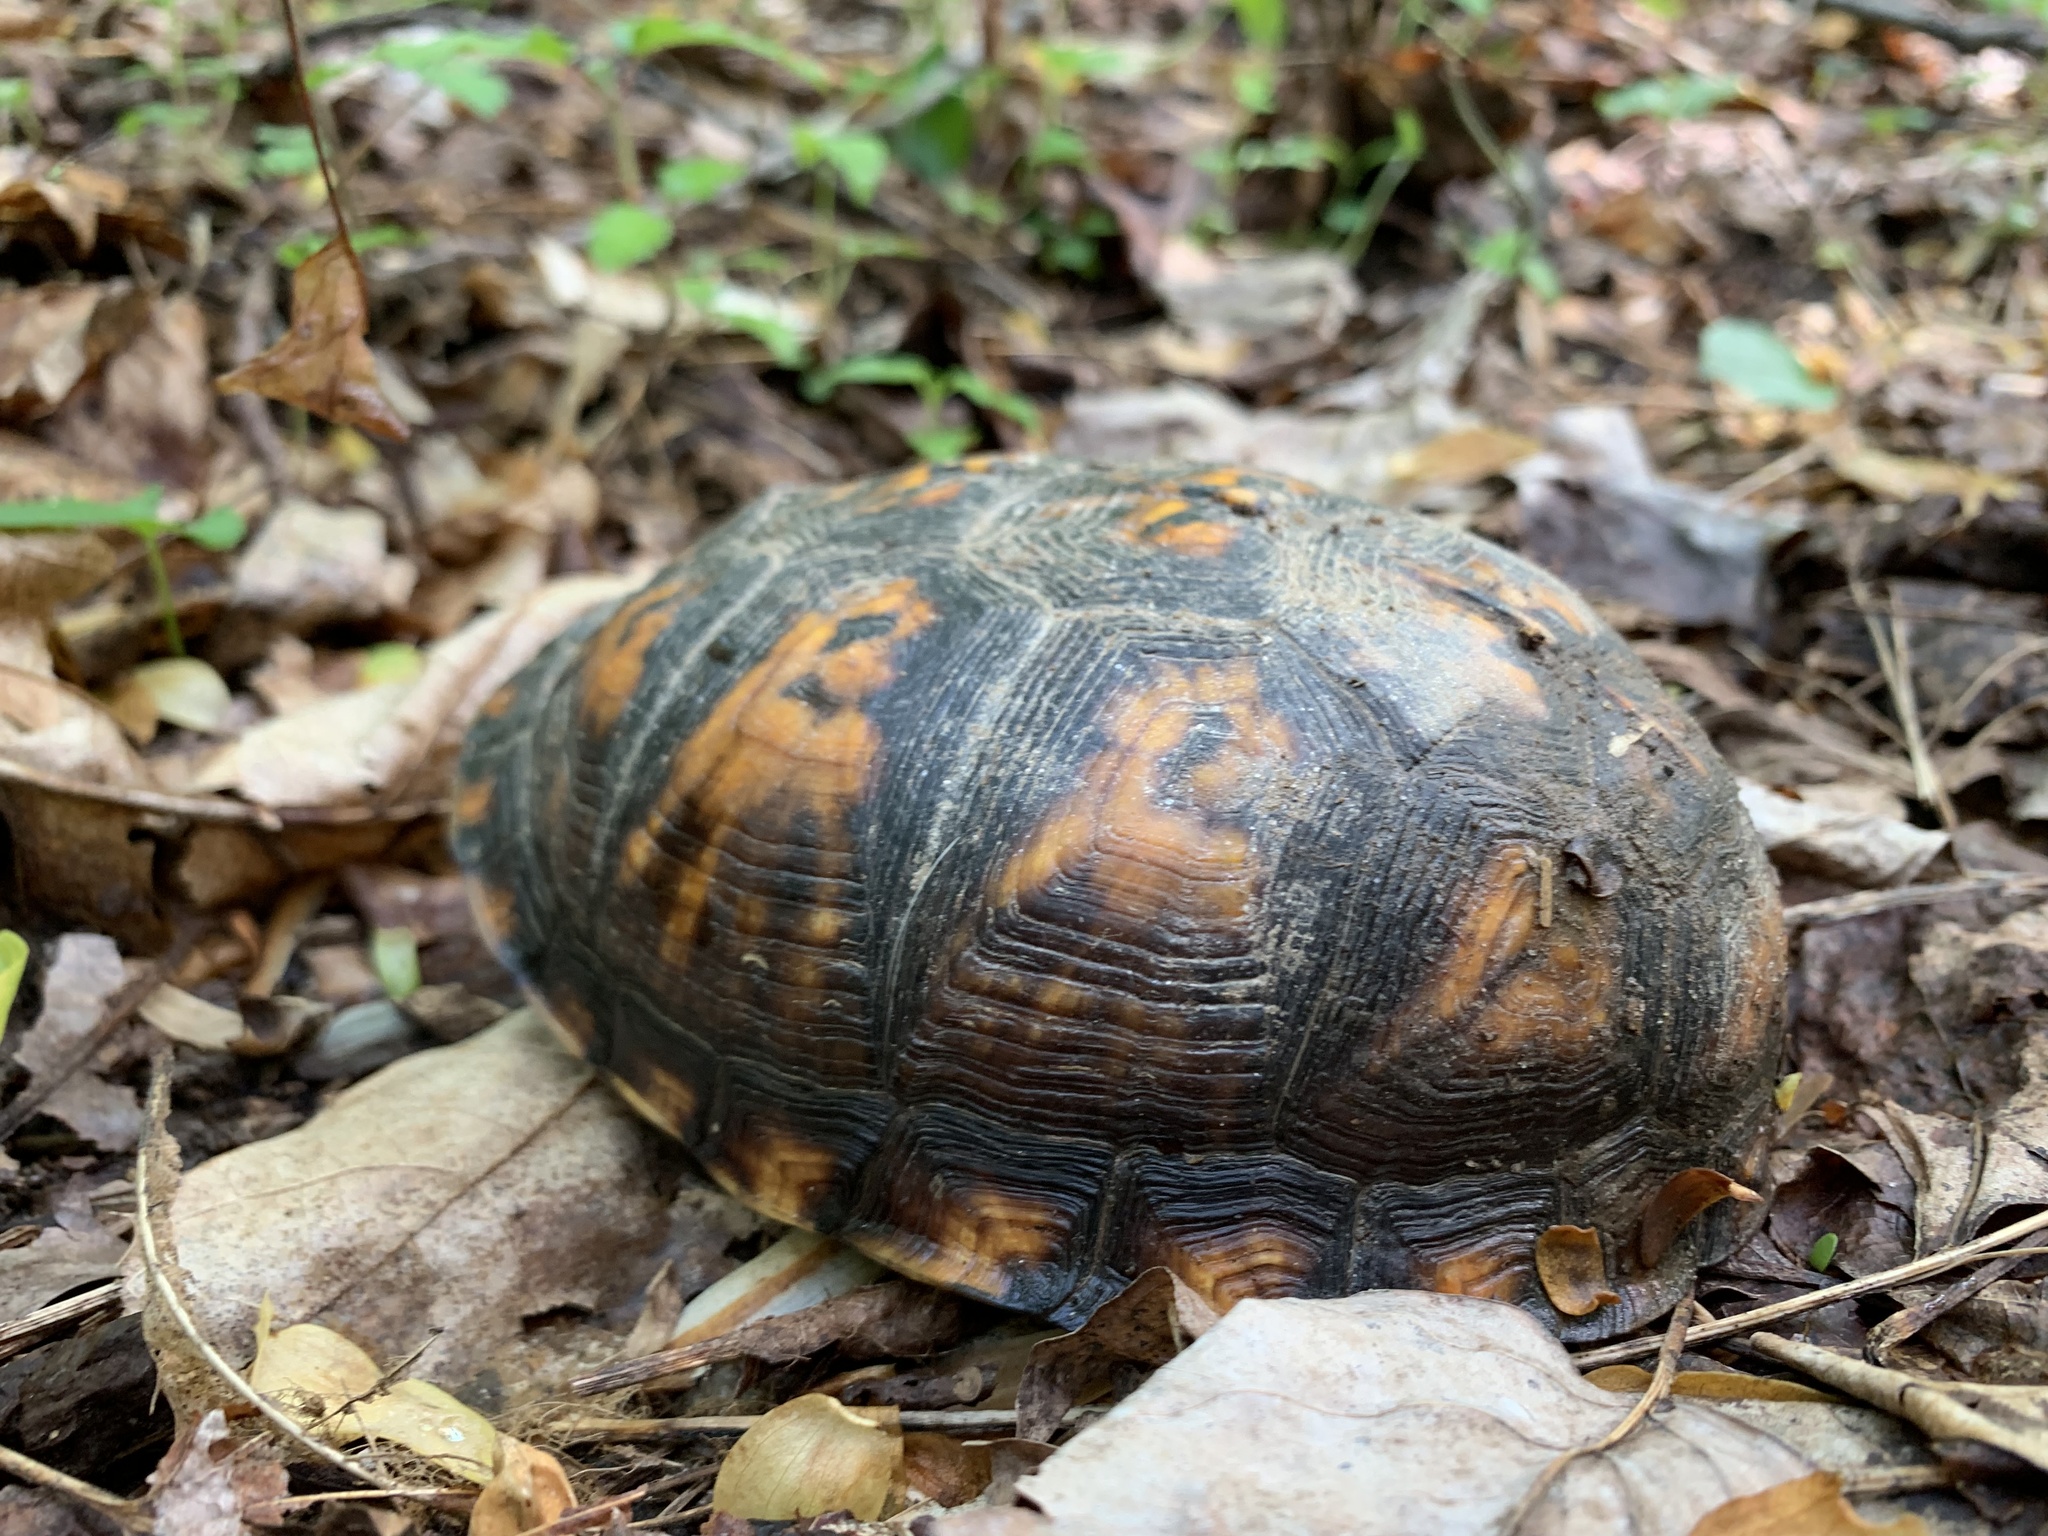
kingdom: Animalia
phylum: Chordata
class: Testudines
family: Emydidae
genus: Terrapene
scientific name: Terrapene carolina
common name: Common box turtle
